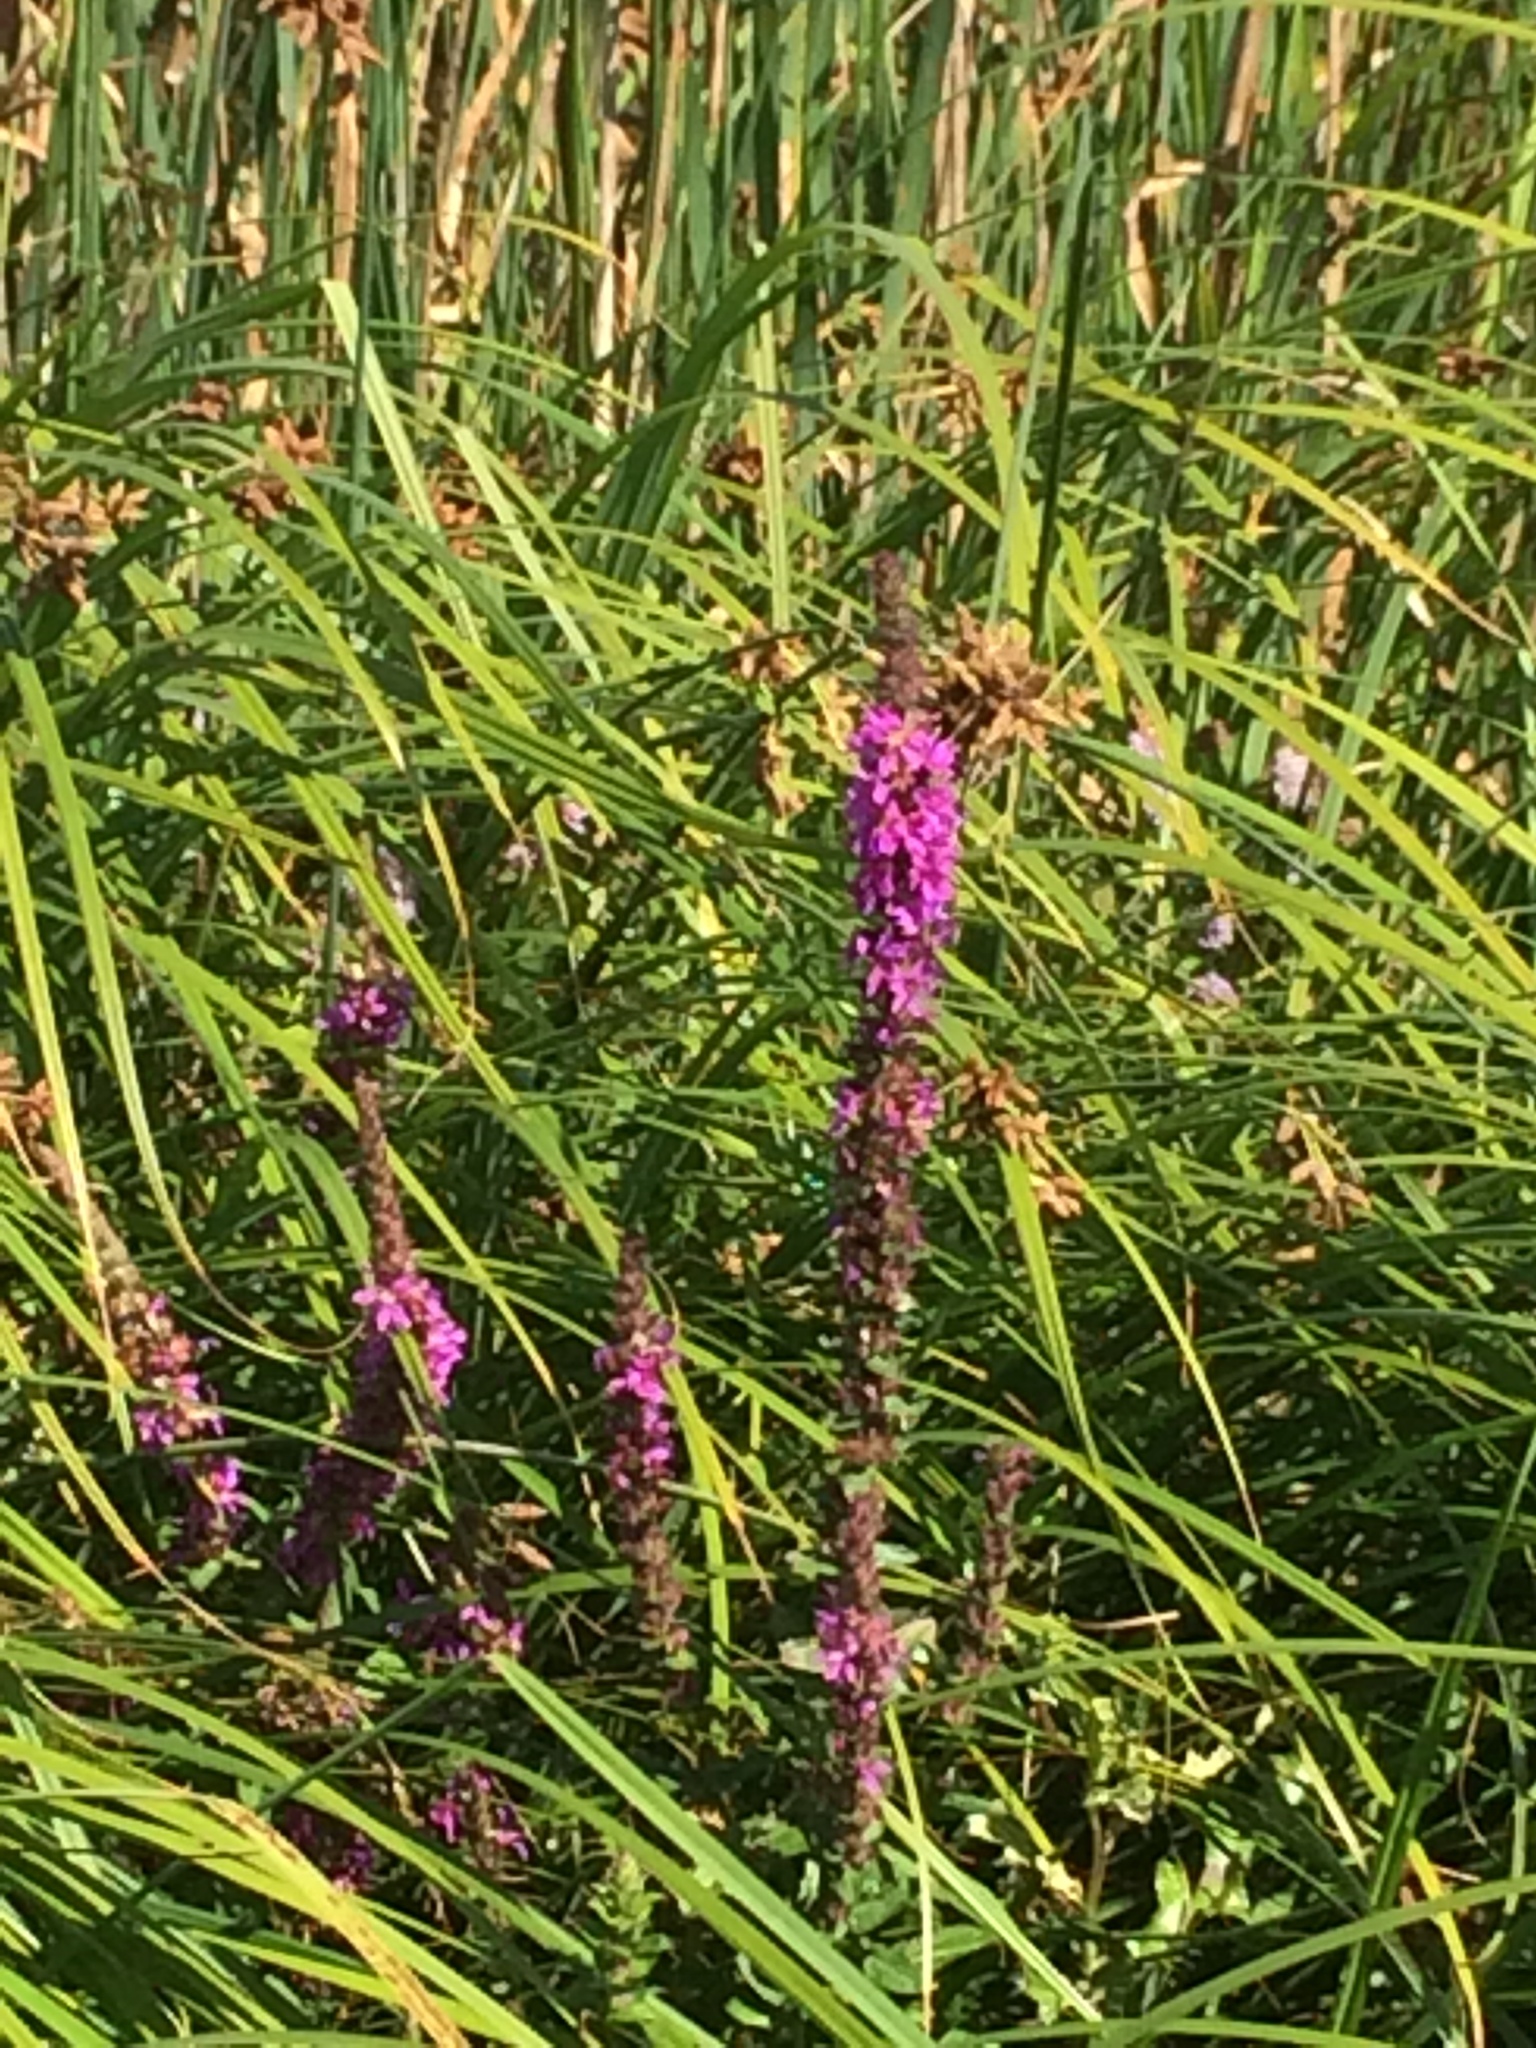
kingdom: Plantae
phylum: Tracheophyta
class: Magnoliopsida
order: Myrtales
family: Lythraceae
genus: Lythrum
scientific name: Lythrum salicaria
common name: Purple loosestrife
